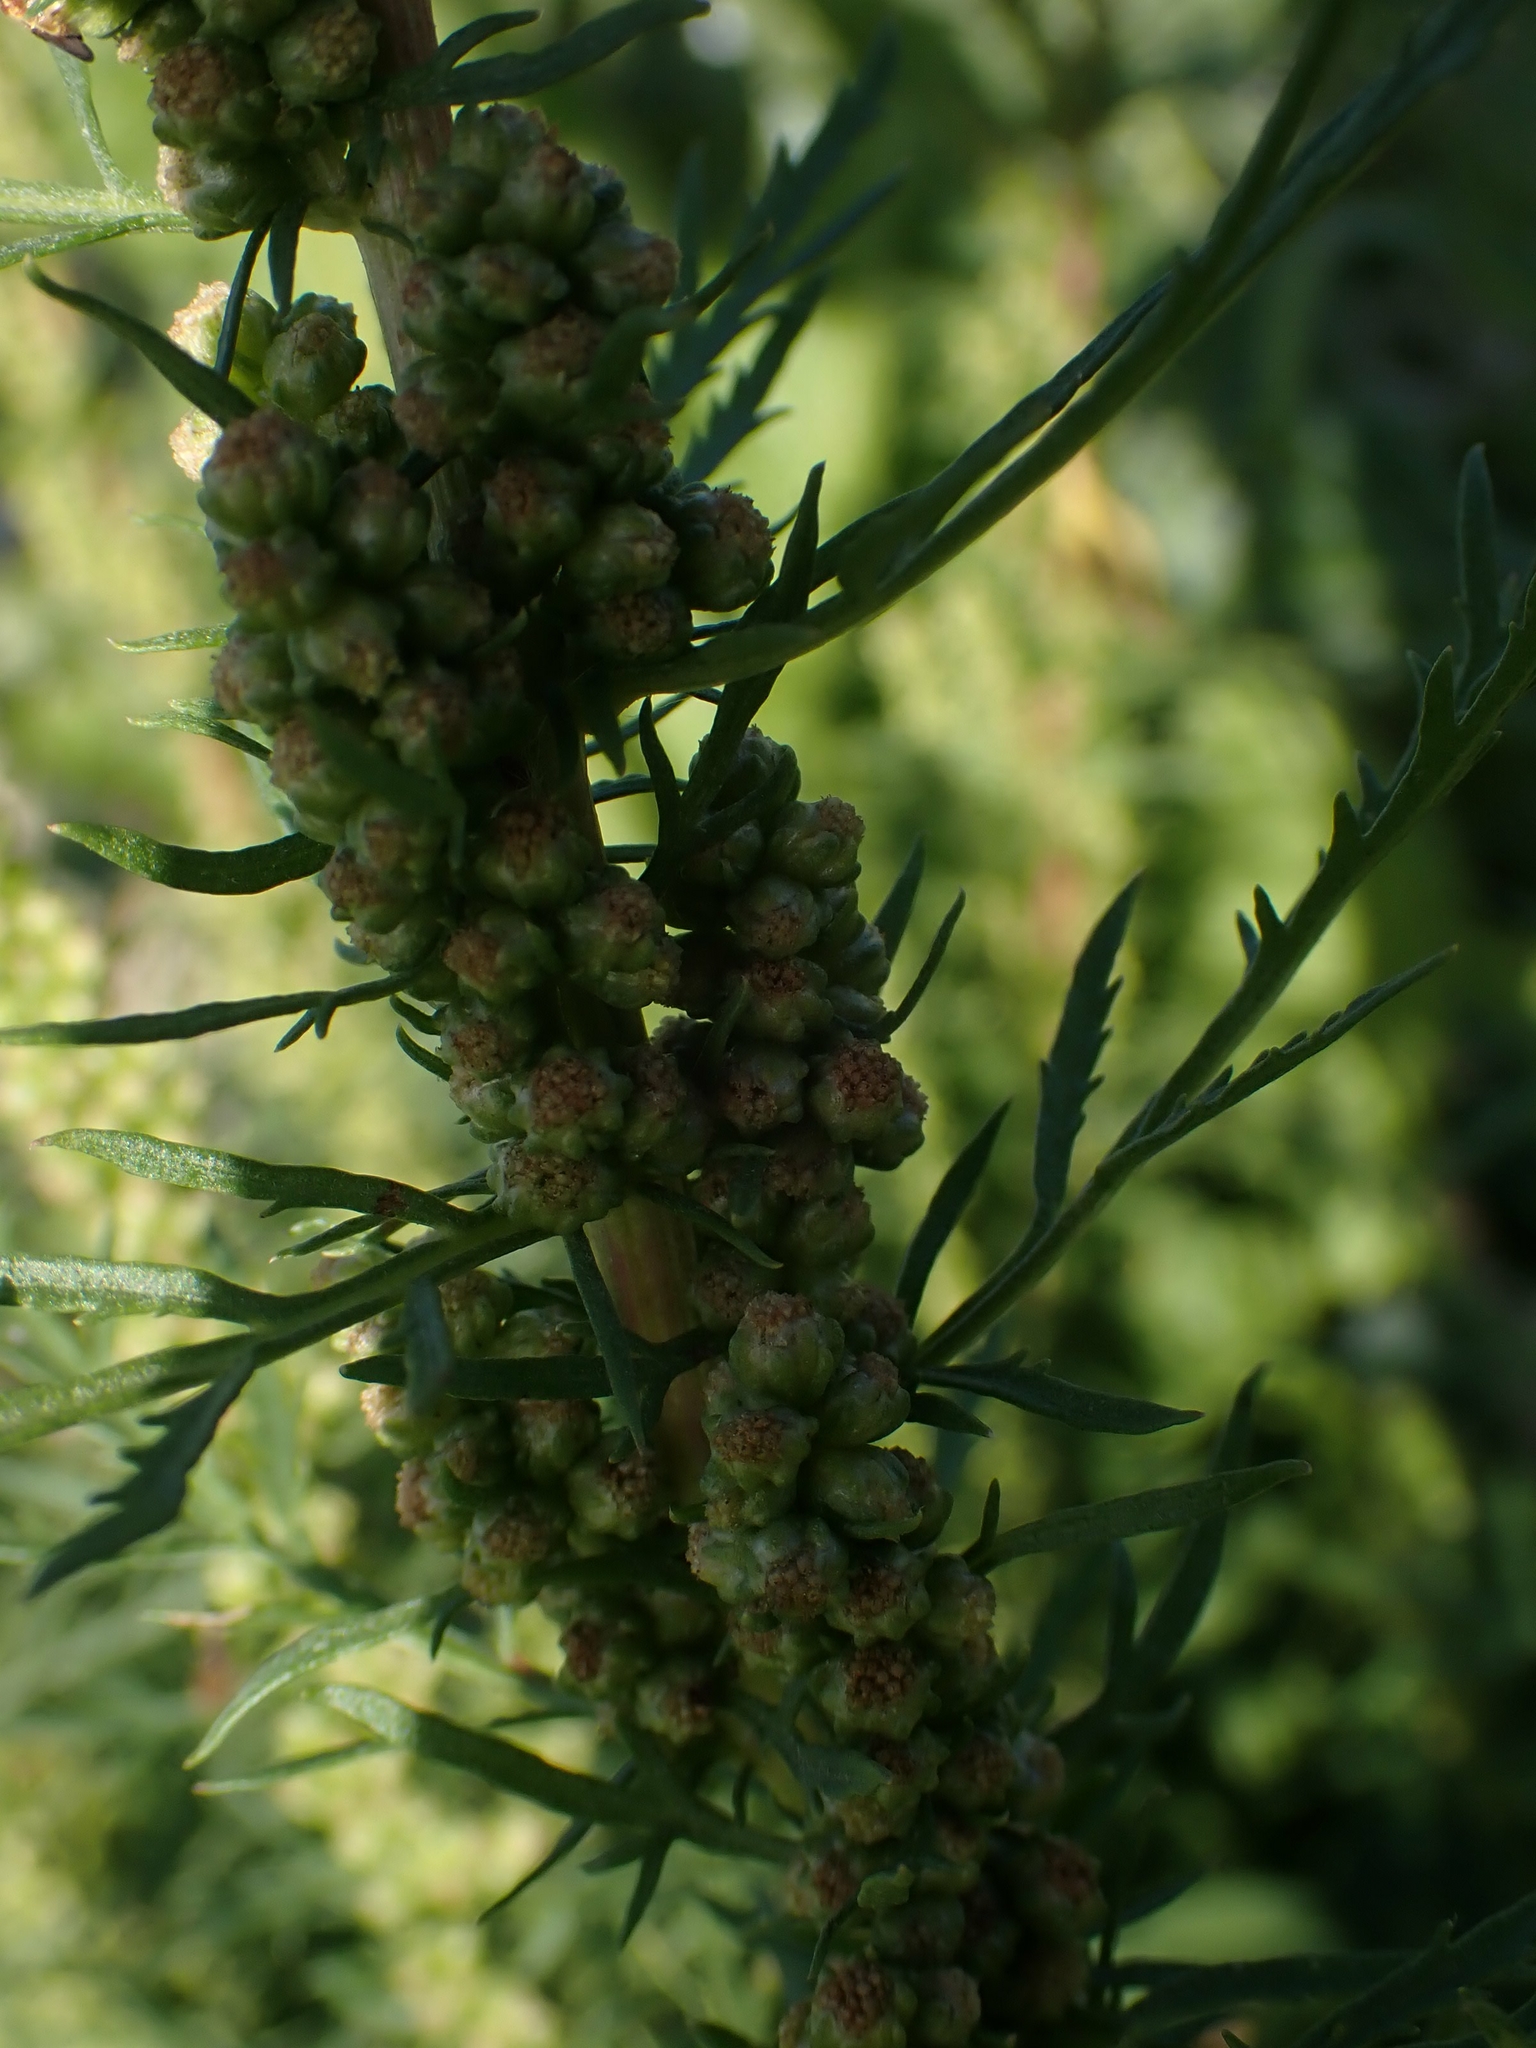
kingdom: Plantae
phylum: Tracheophyta
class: Magnoliopsida
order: Asterales
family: Asteraceae
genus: Artemisia
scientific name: Artemisia biennis
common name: Biennial wormwood
